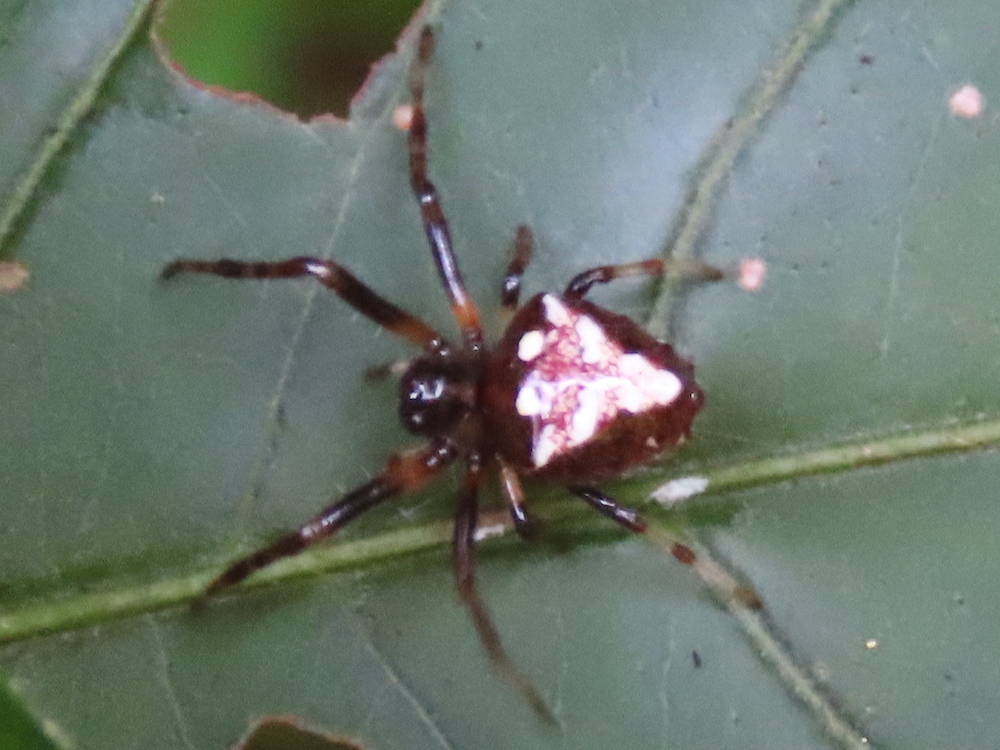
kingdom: Animalia
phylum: Arthropoda
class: Arachnida
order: Araneae
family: Araneidae
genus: Verrucosa
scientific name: Verrucosa arenata
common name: Orb weavers
